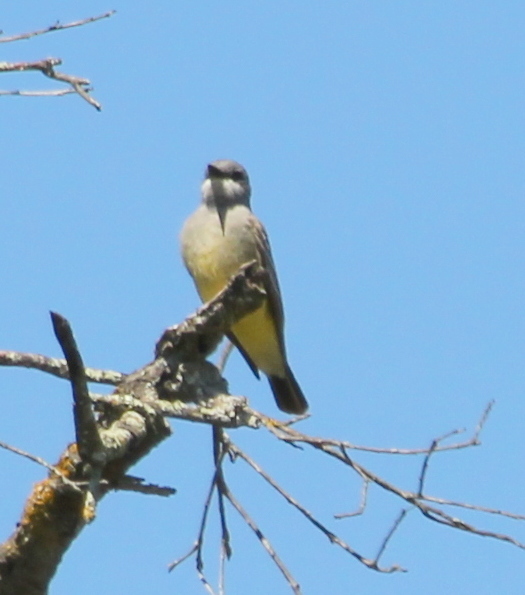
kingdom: Animalia
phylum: Chordata
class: Aves
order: Passeriformes
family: Tyrannidae
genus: Tyrannus
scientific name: Tyrannus vociferans
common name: Cassin's kingbird
